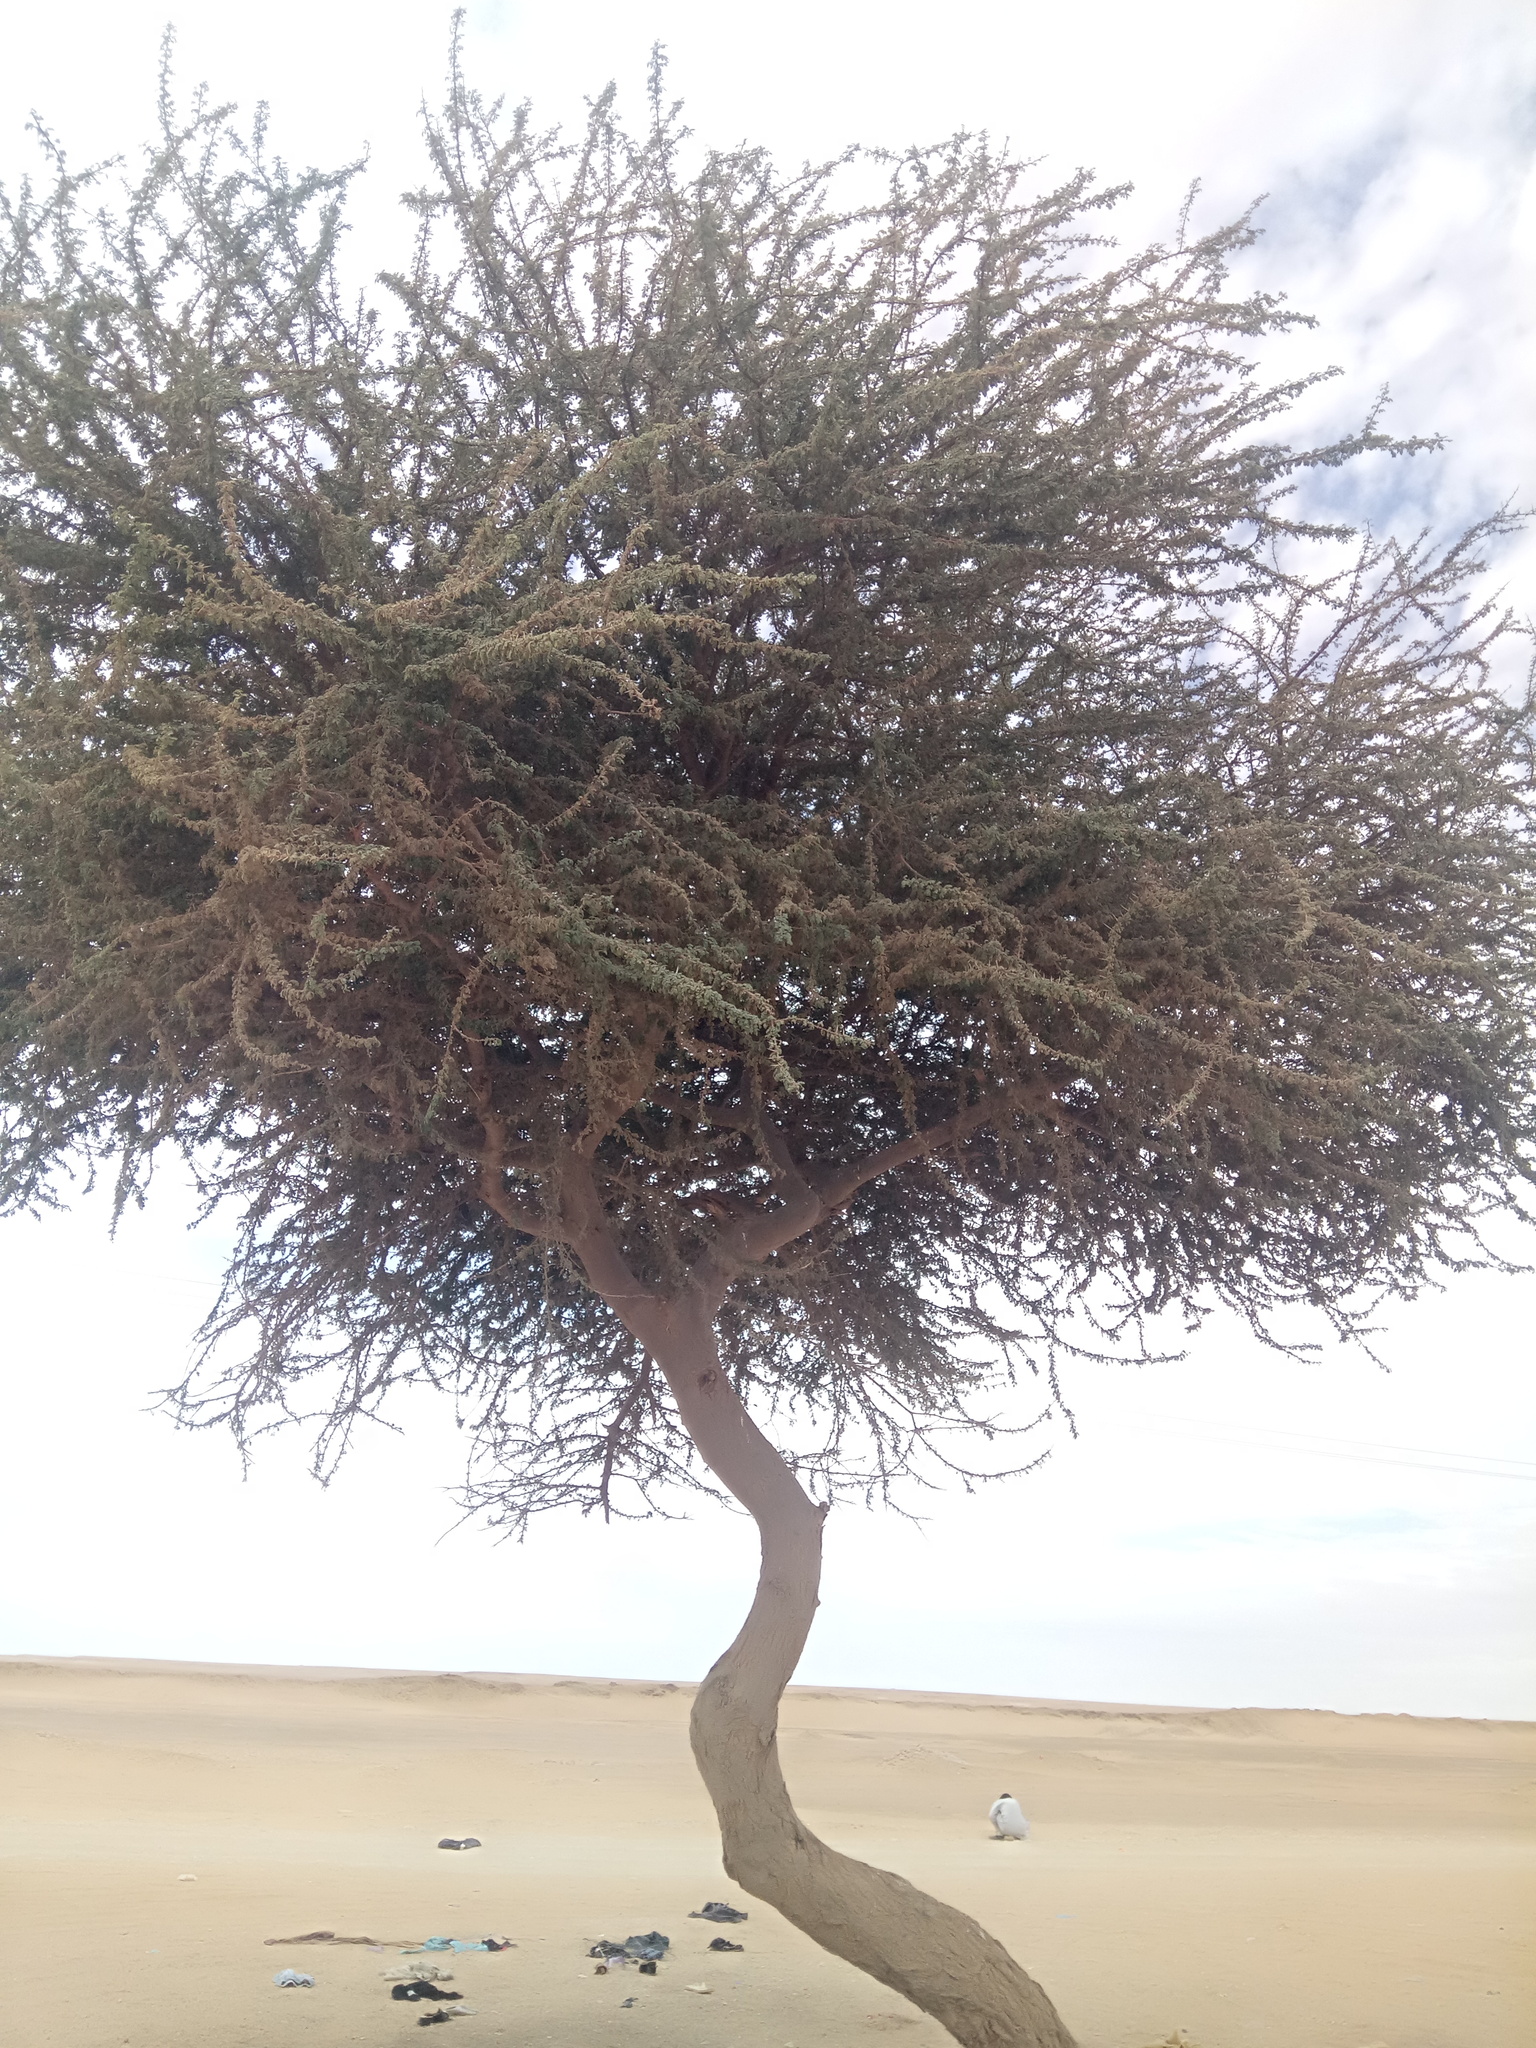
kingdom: Plantae
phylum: Tracheophyta
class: Magnoliopsida
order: Fabales
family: Fabaceae
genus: Vachellia
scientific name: Vachellia tortilis
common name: Umbrella thorn acacia
